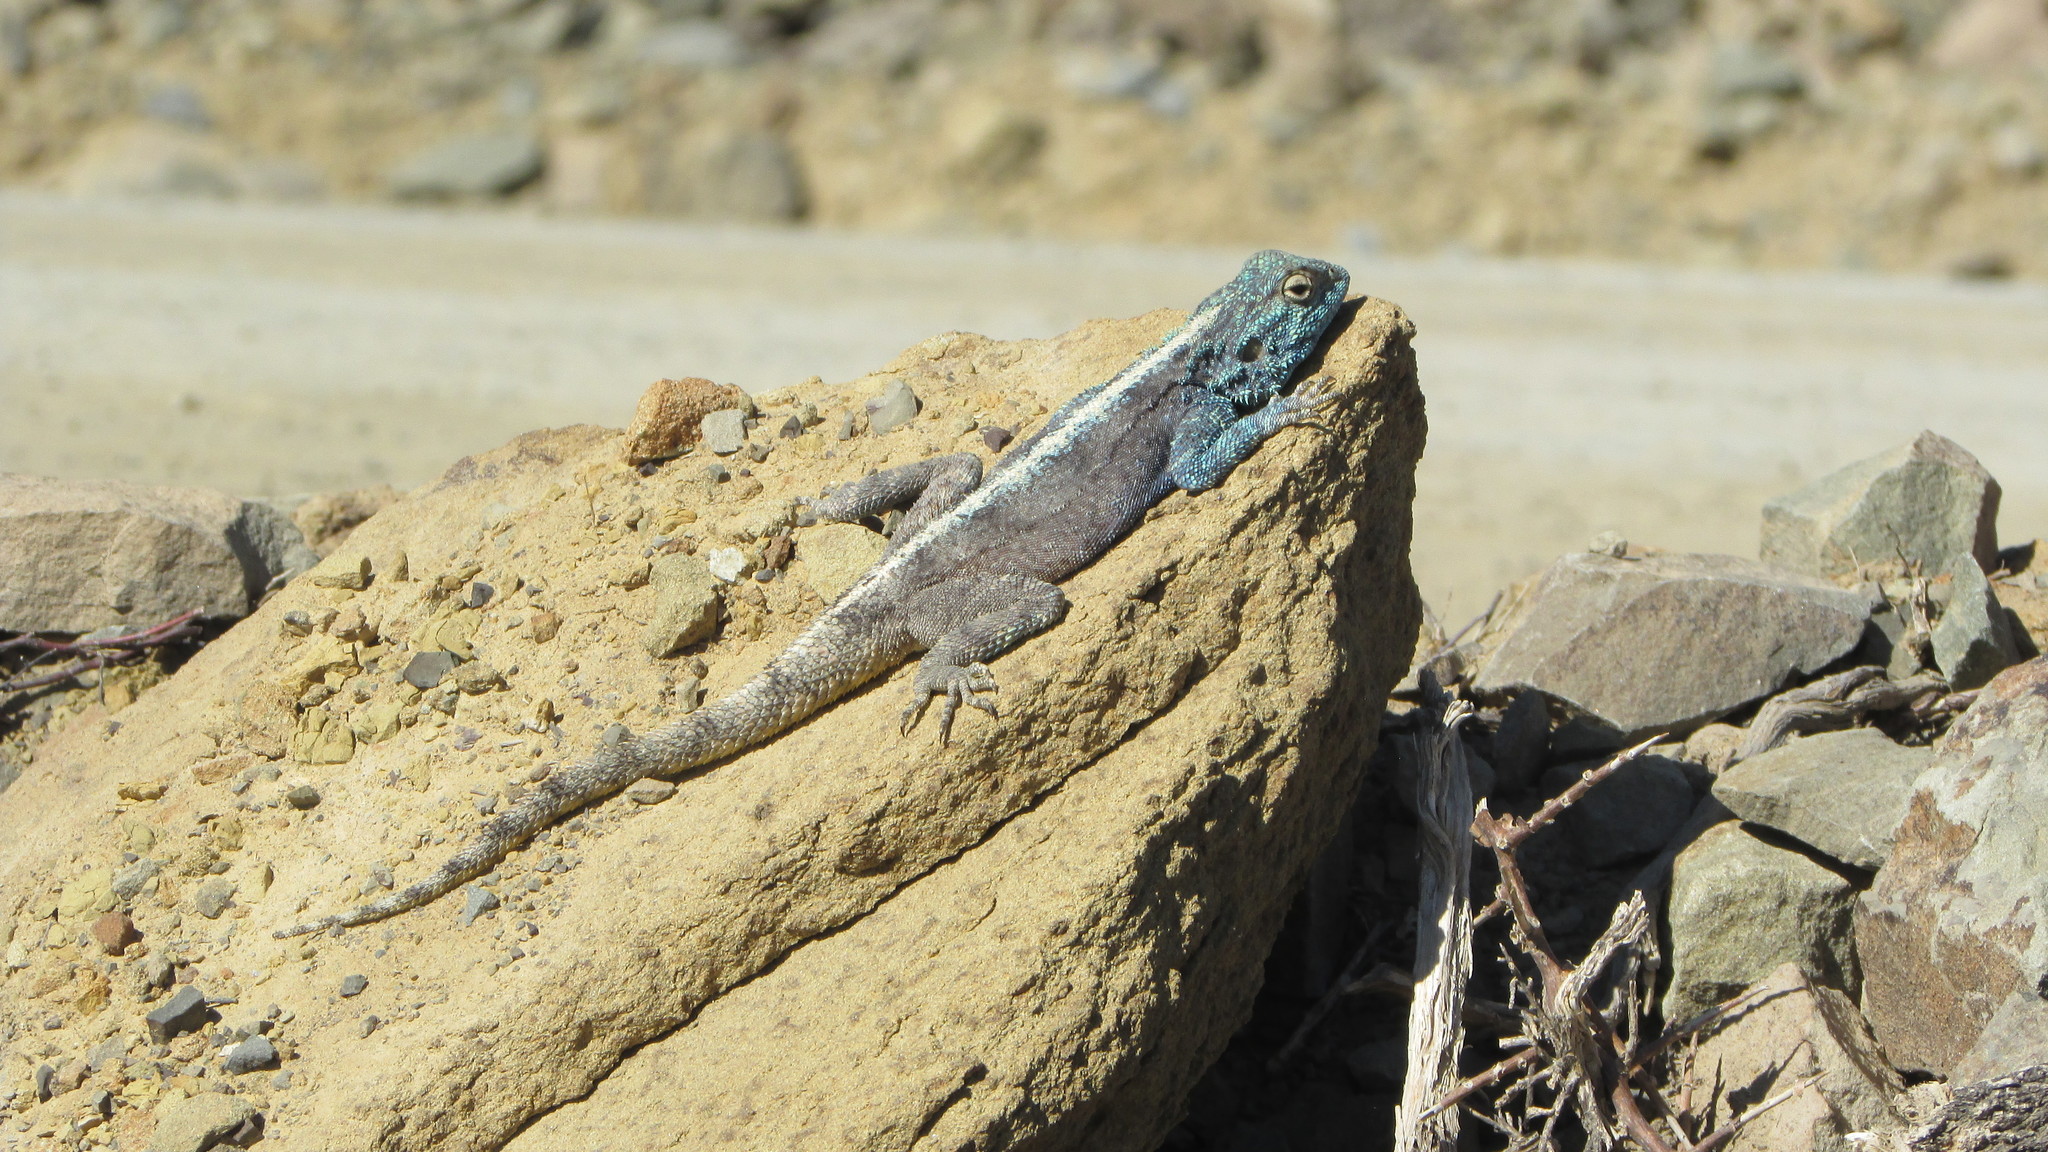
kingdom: Animalia
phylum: Chordata
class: Squamata
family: Agamidae
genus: Agama
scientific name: Agama atra
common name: Southern african rock agama
